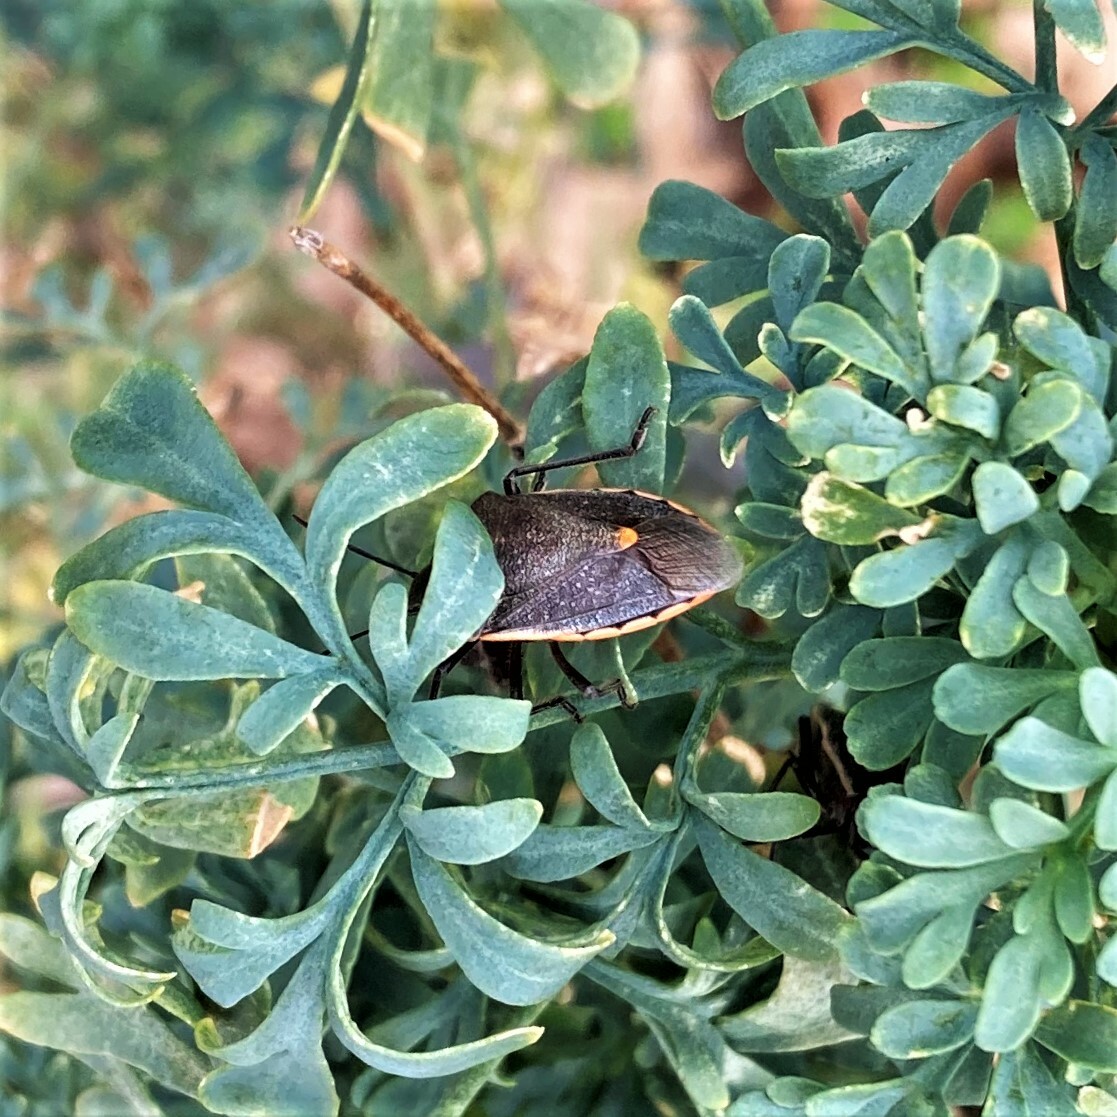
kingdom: Animalia
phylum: Arthropoda
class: Insecta
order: Hemiptera
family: Pentatomidae
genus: Chlorochroa
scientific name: Chlorochroa ligata
